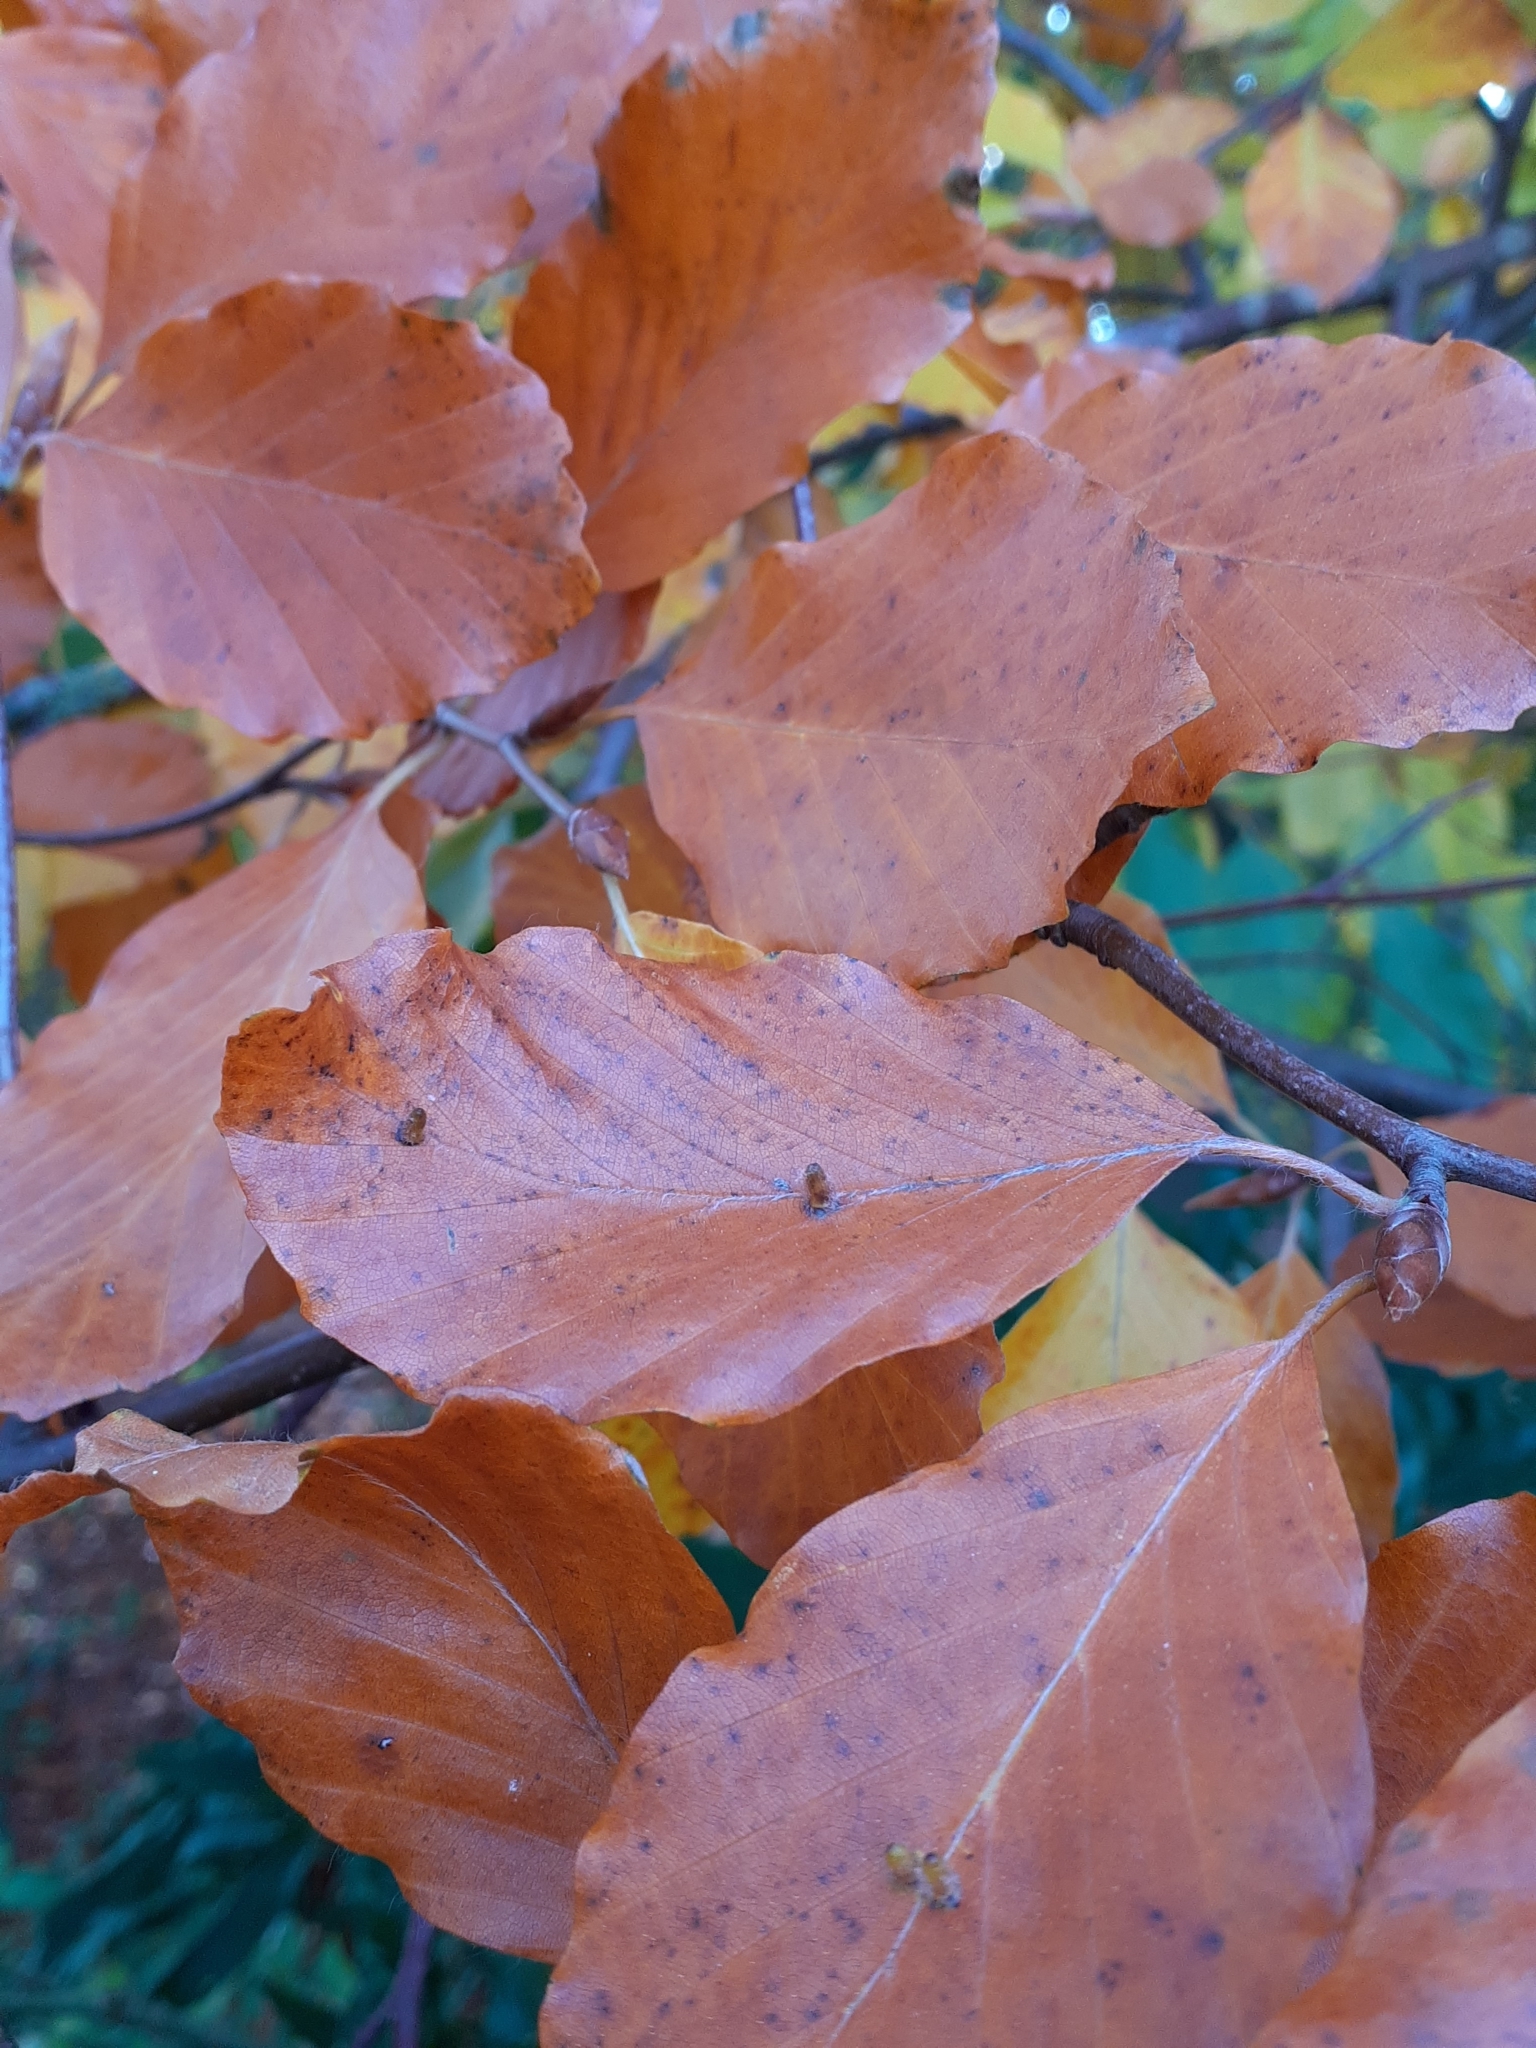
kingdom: Animalia
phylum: Arthropoda
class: Insecta
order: Diptera
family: Cecidomyiidae
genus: Hartigiola
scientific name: Hartigiola annulipes
